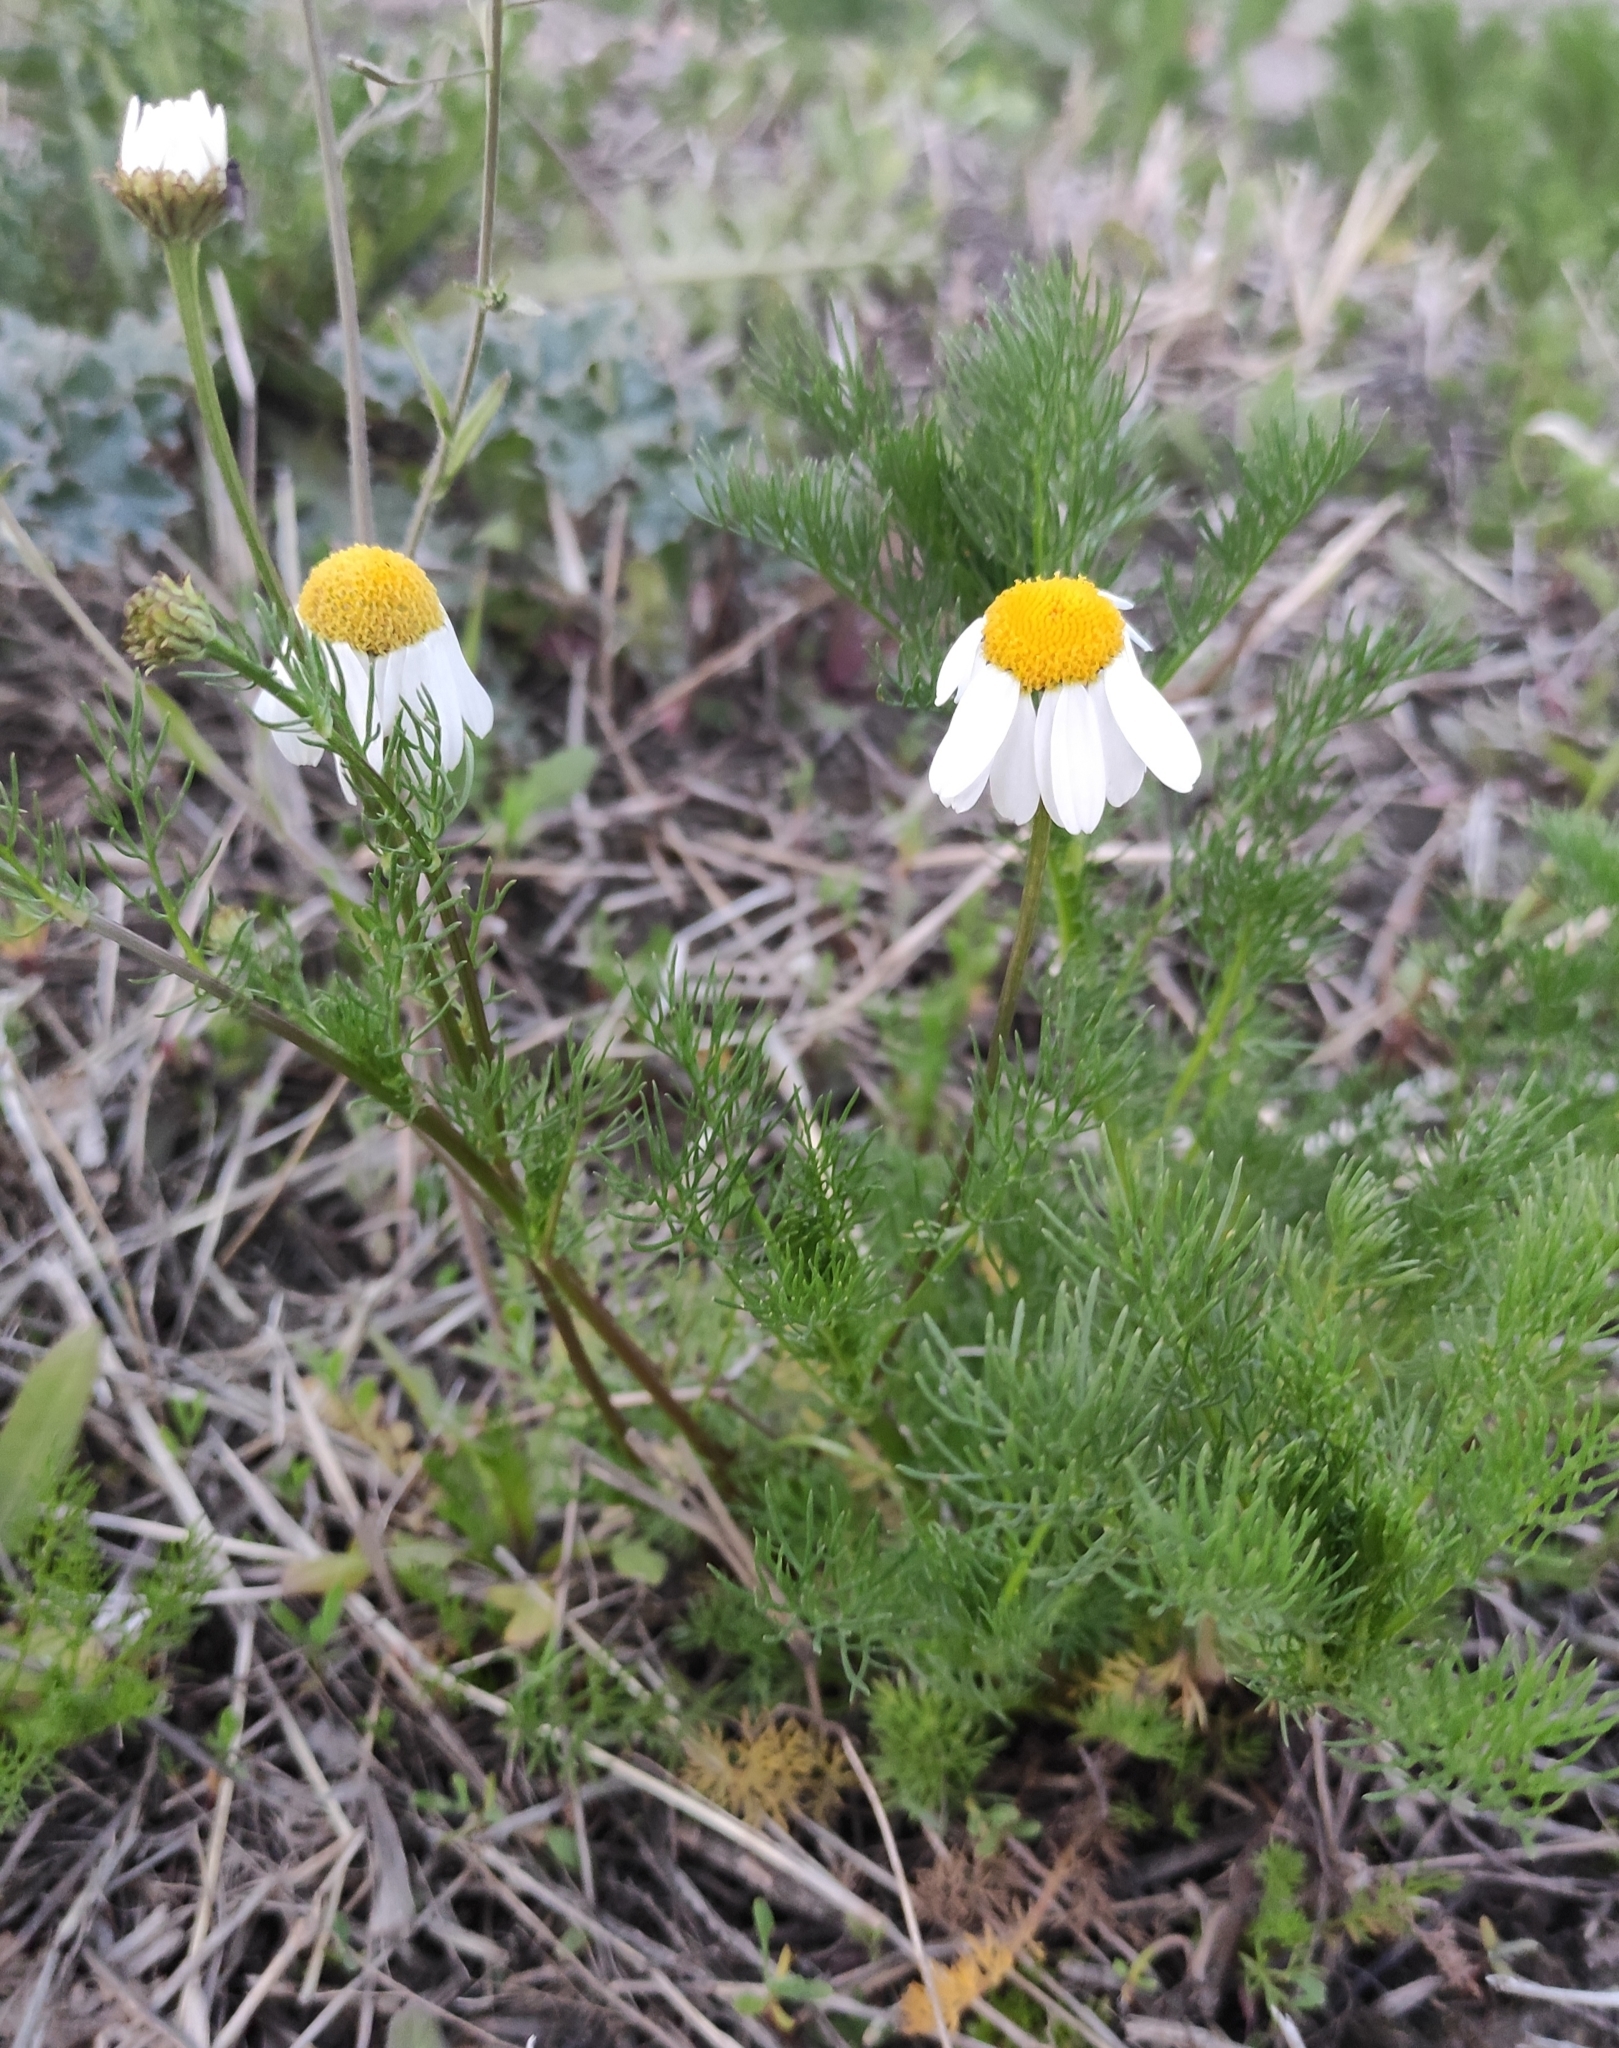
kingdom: Plantae
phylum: Tracheophyta
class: Magnoliopsida
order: Asterales
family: Asteraceae
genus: Tripleurospermum
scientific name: Tripleurospermum inodorum
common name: Scentless mayweed
